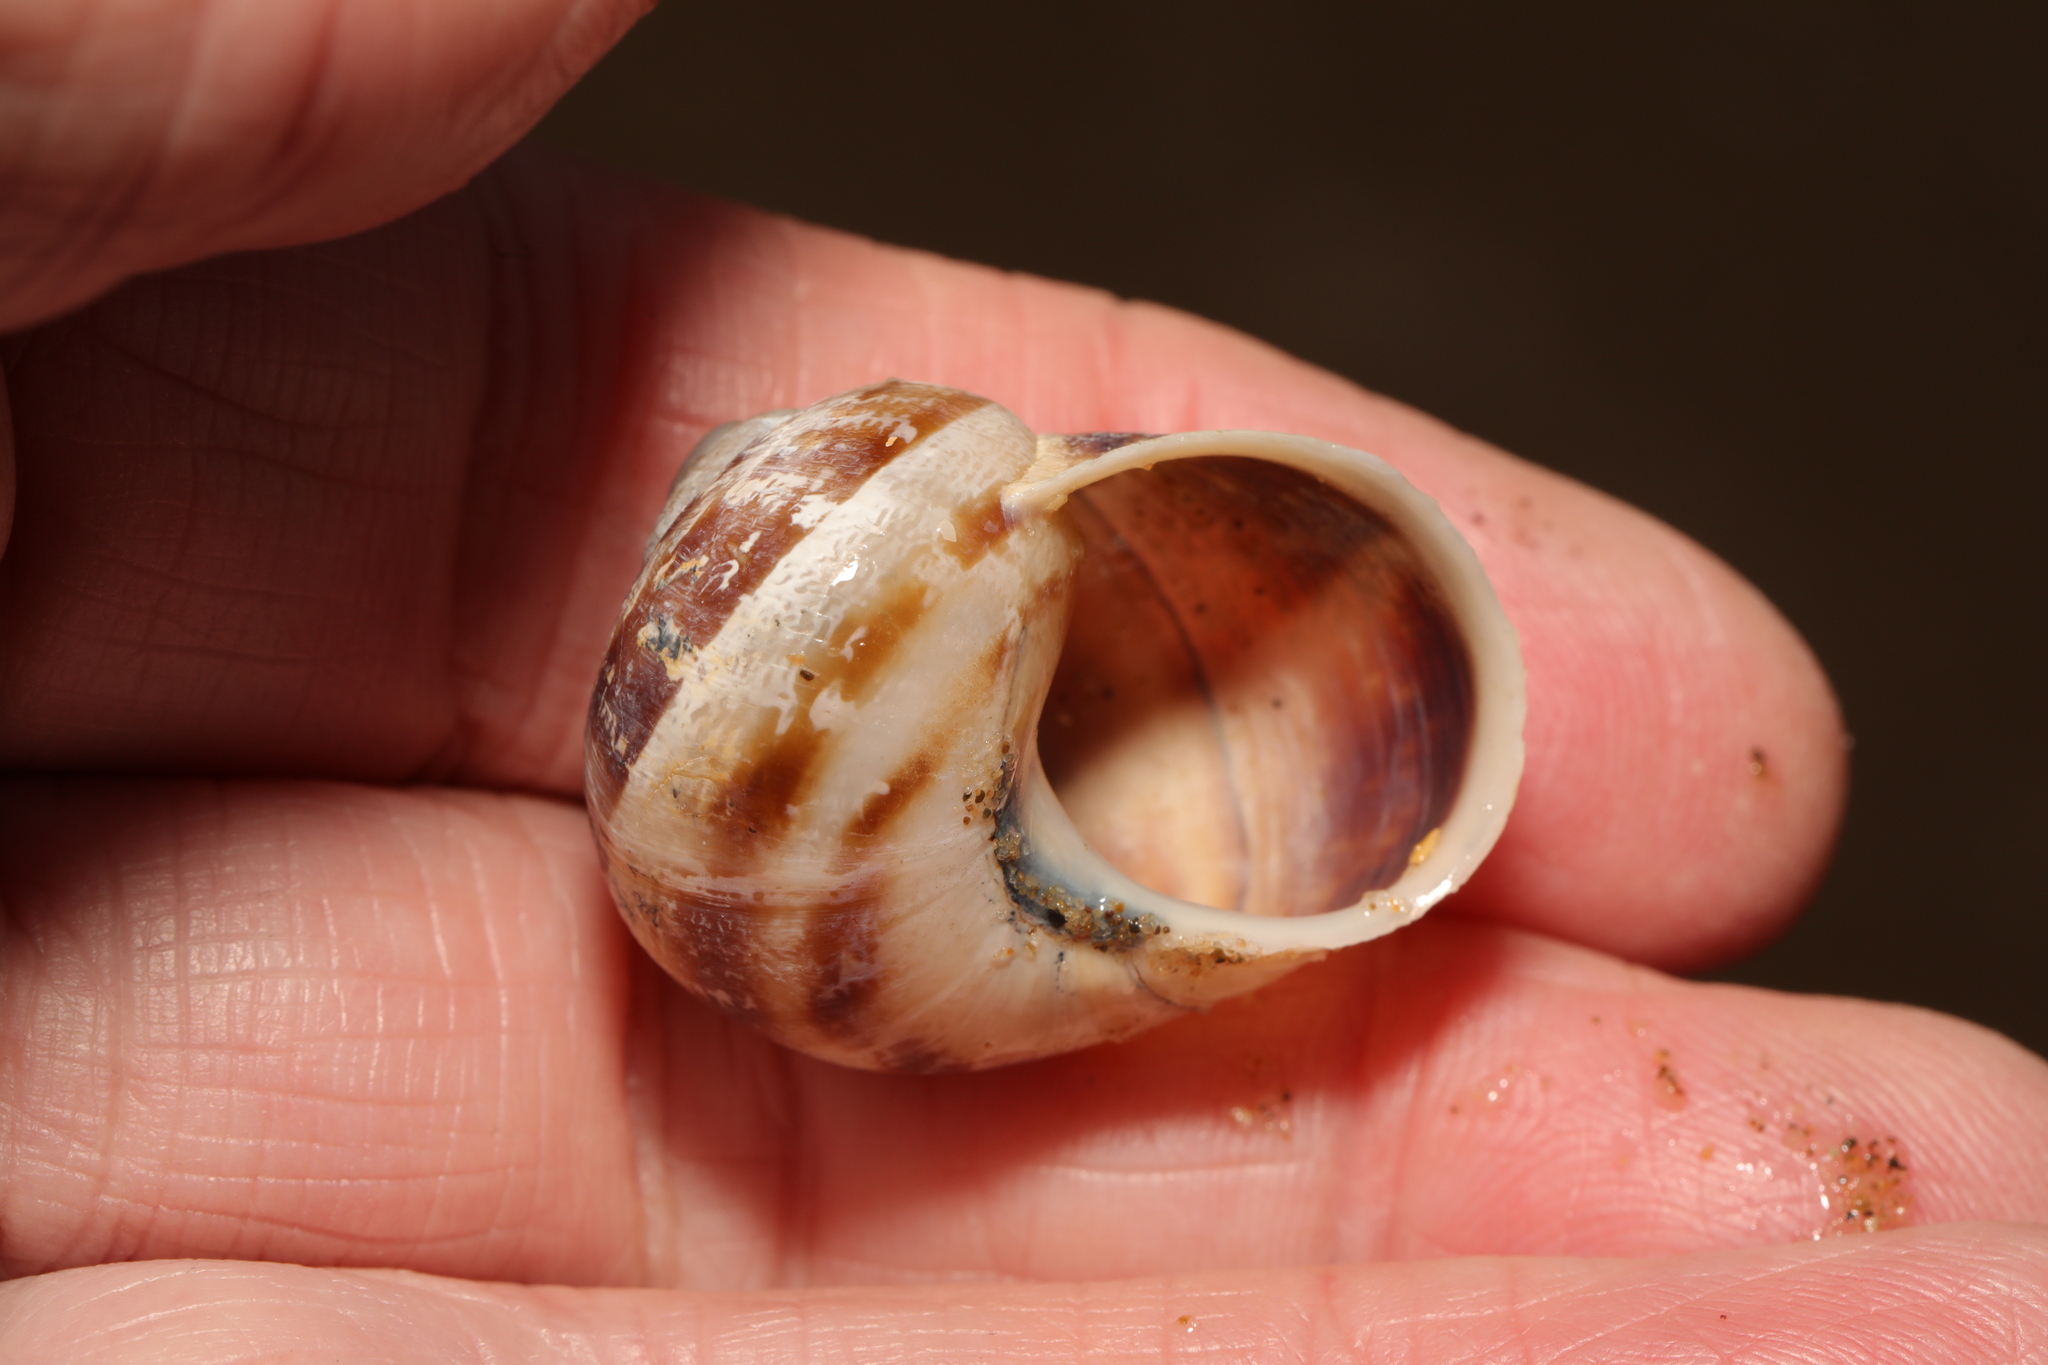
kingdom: Animalia
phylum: Mollusca
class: Gastropoda
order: Stylommatophora
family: Helicidae
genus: Cornu
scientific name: Cornu aspersum
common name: Brown garden snail
